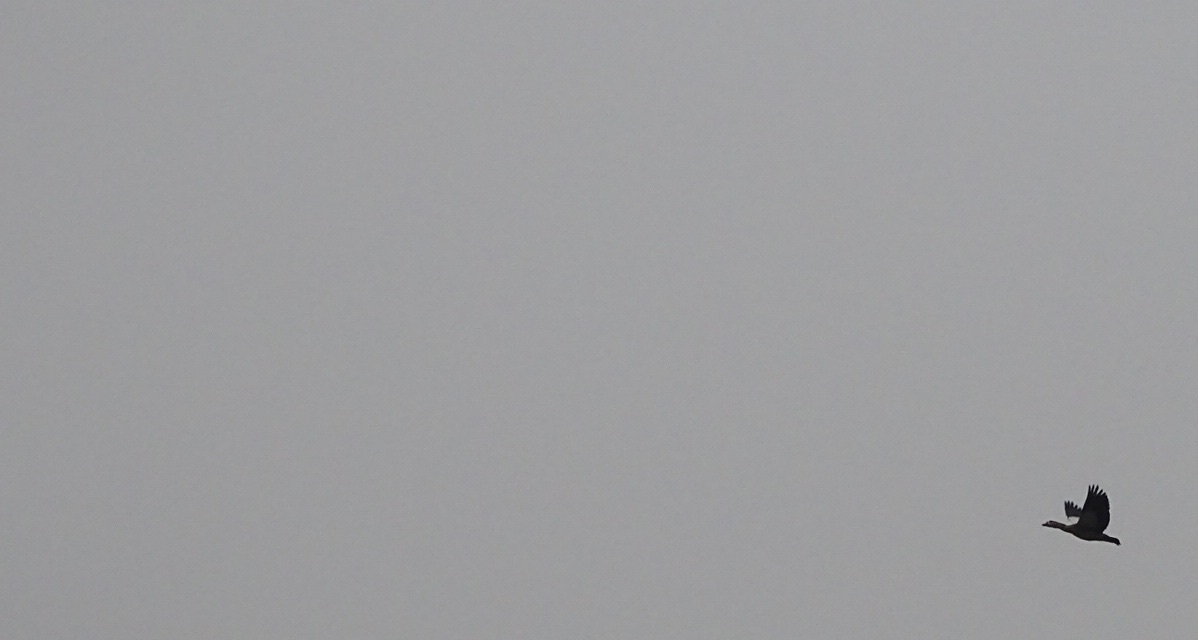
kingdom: Animalia
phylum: Chordata
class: Aves
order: Anseriformes
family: Anatidae
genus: Alopochen
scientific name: Alopochen aegyptiaca
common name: Egyptian goose
